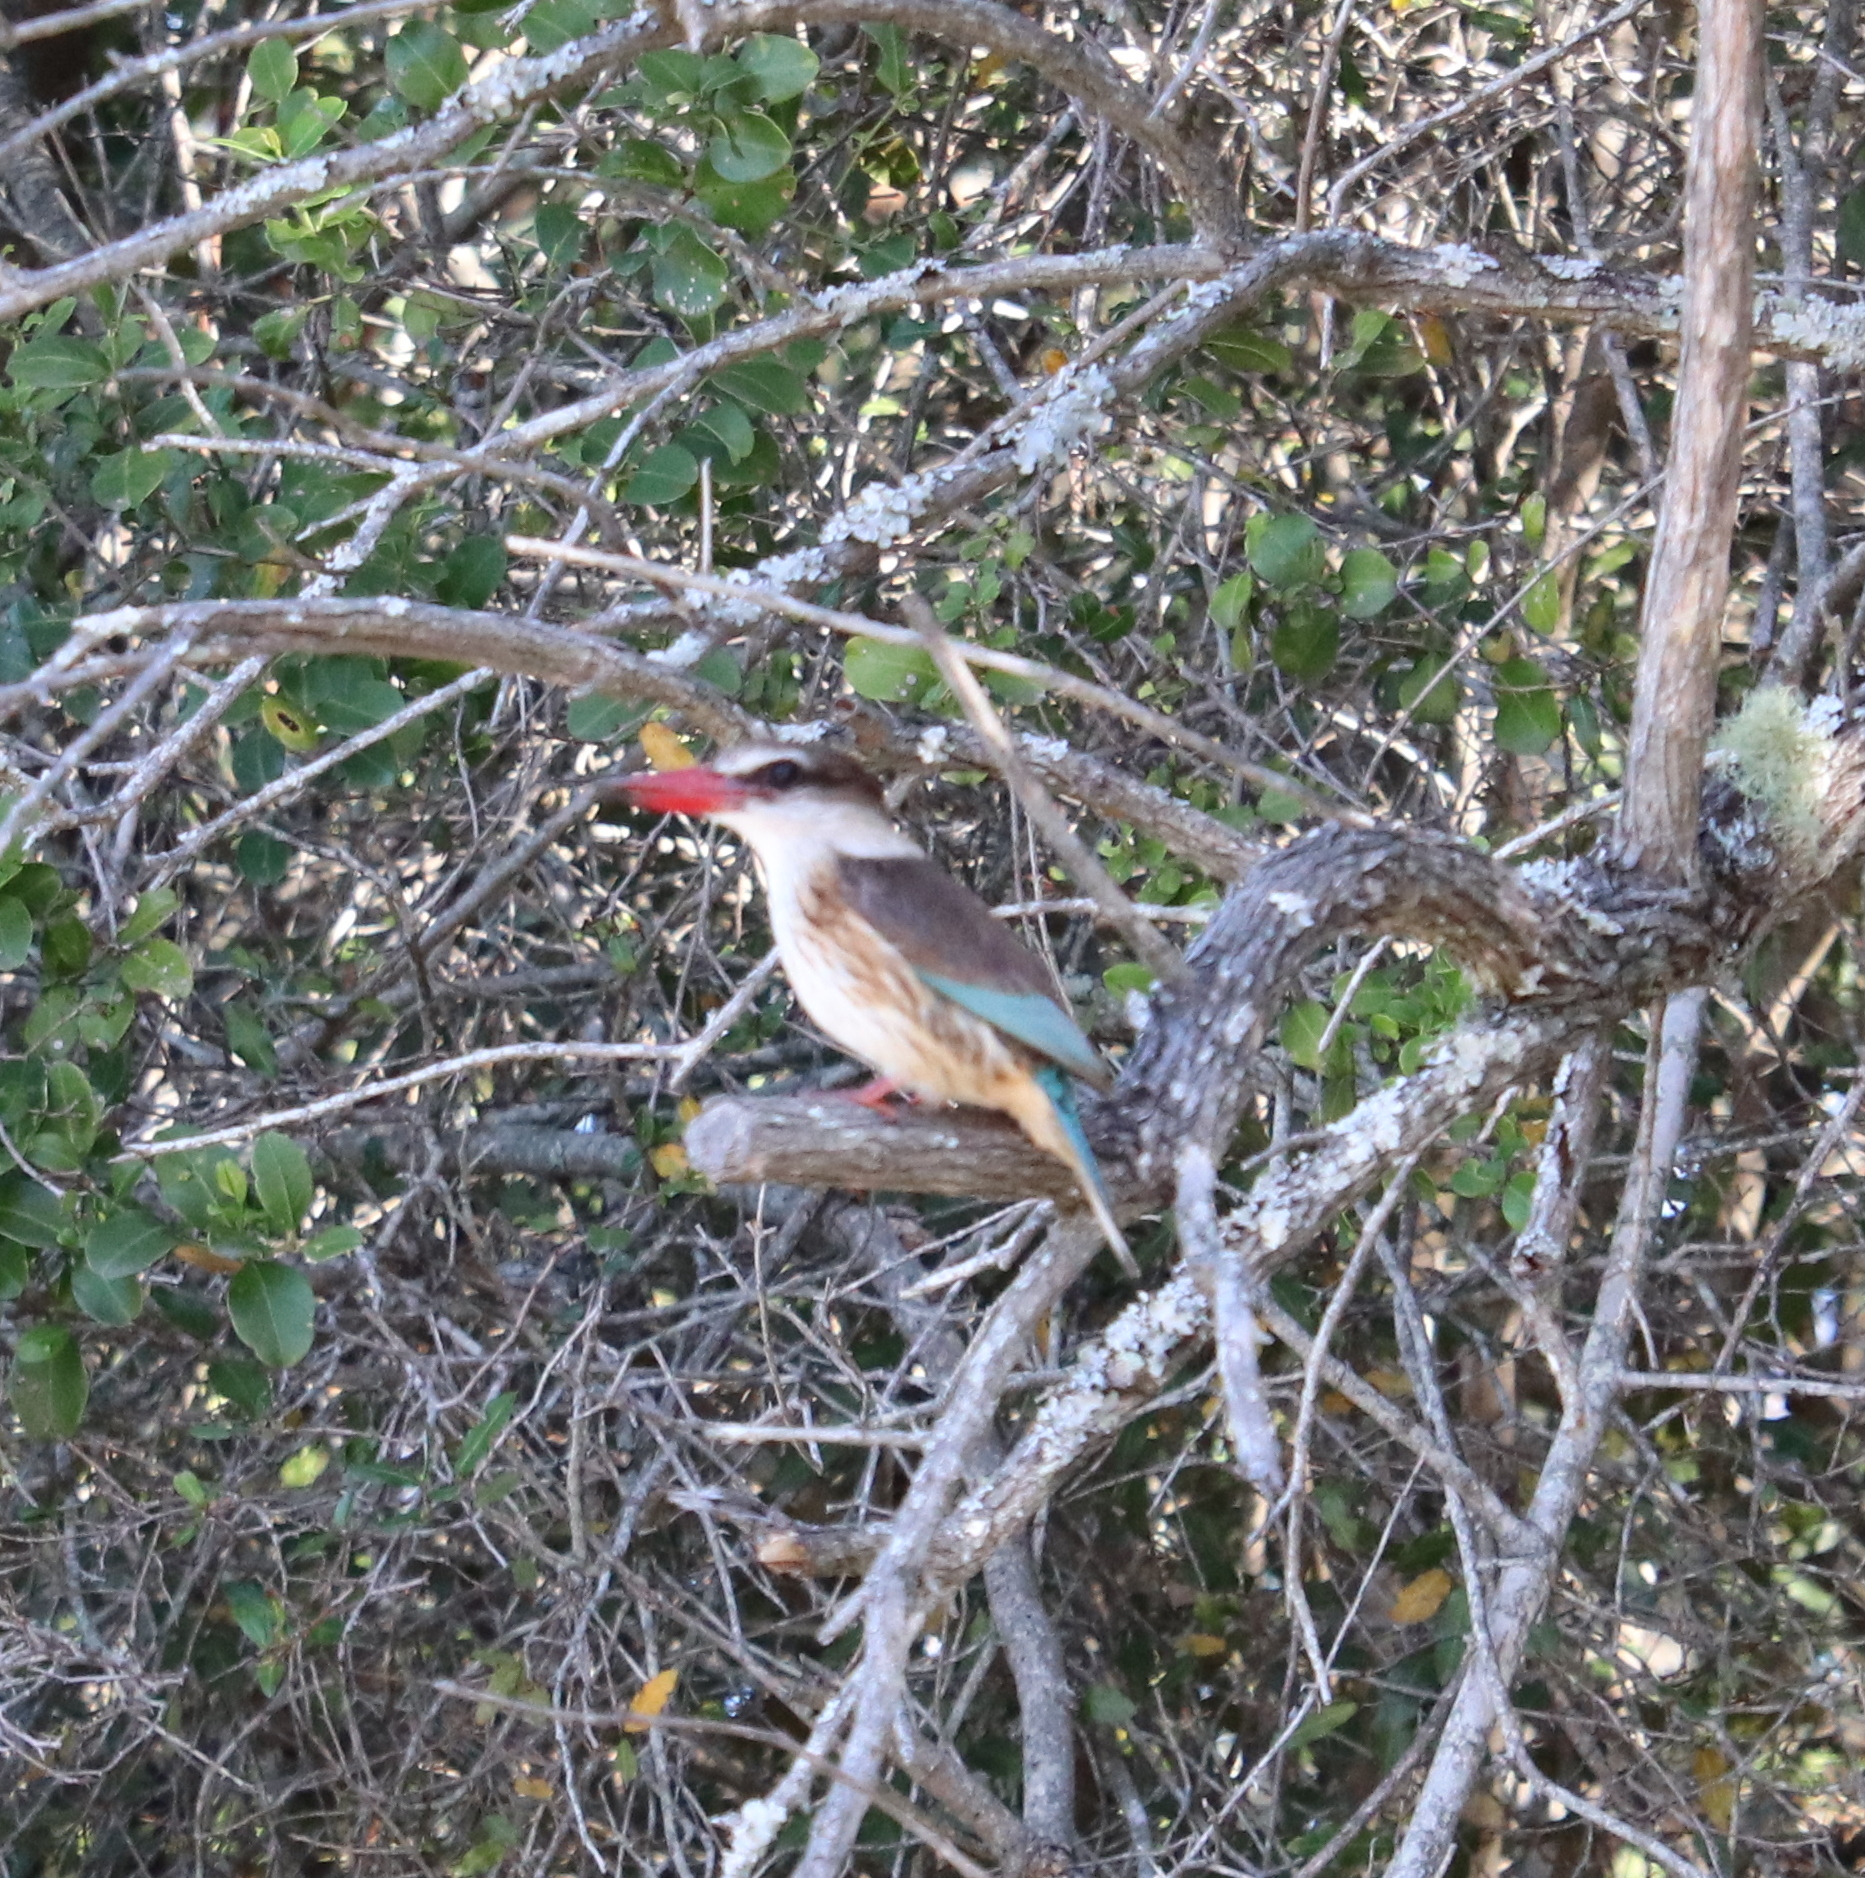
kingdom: Animalia
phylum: Chordata
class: Aves
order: Coraciiformes
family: Alcedinidae
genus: Halcyon
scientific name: Halcyon albiventris
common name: Brown-hooded kingfisher
